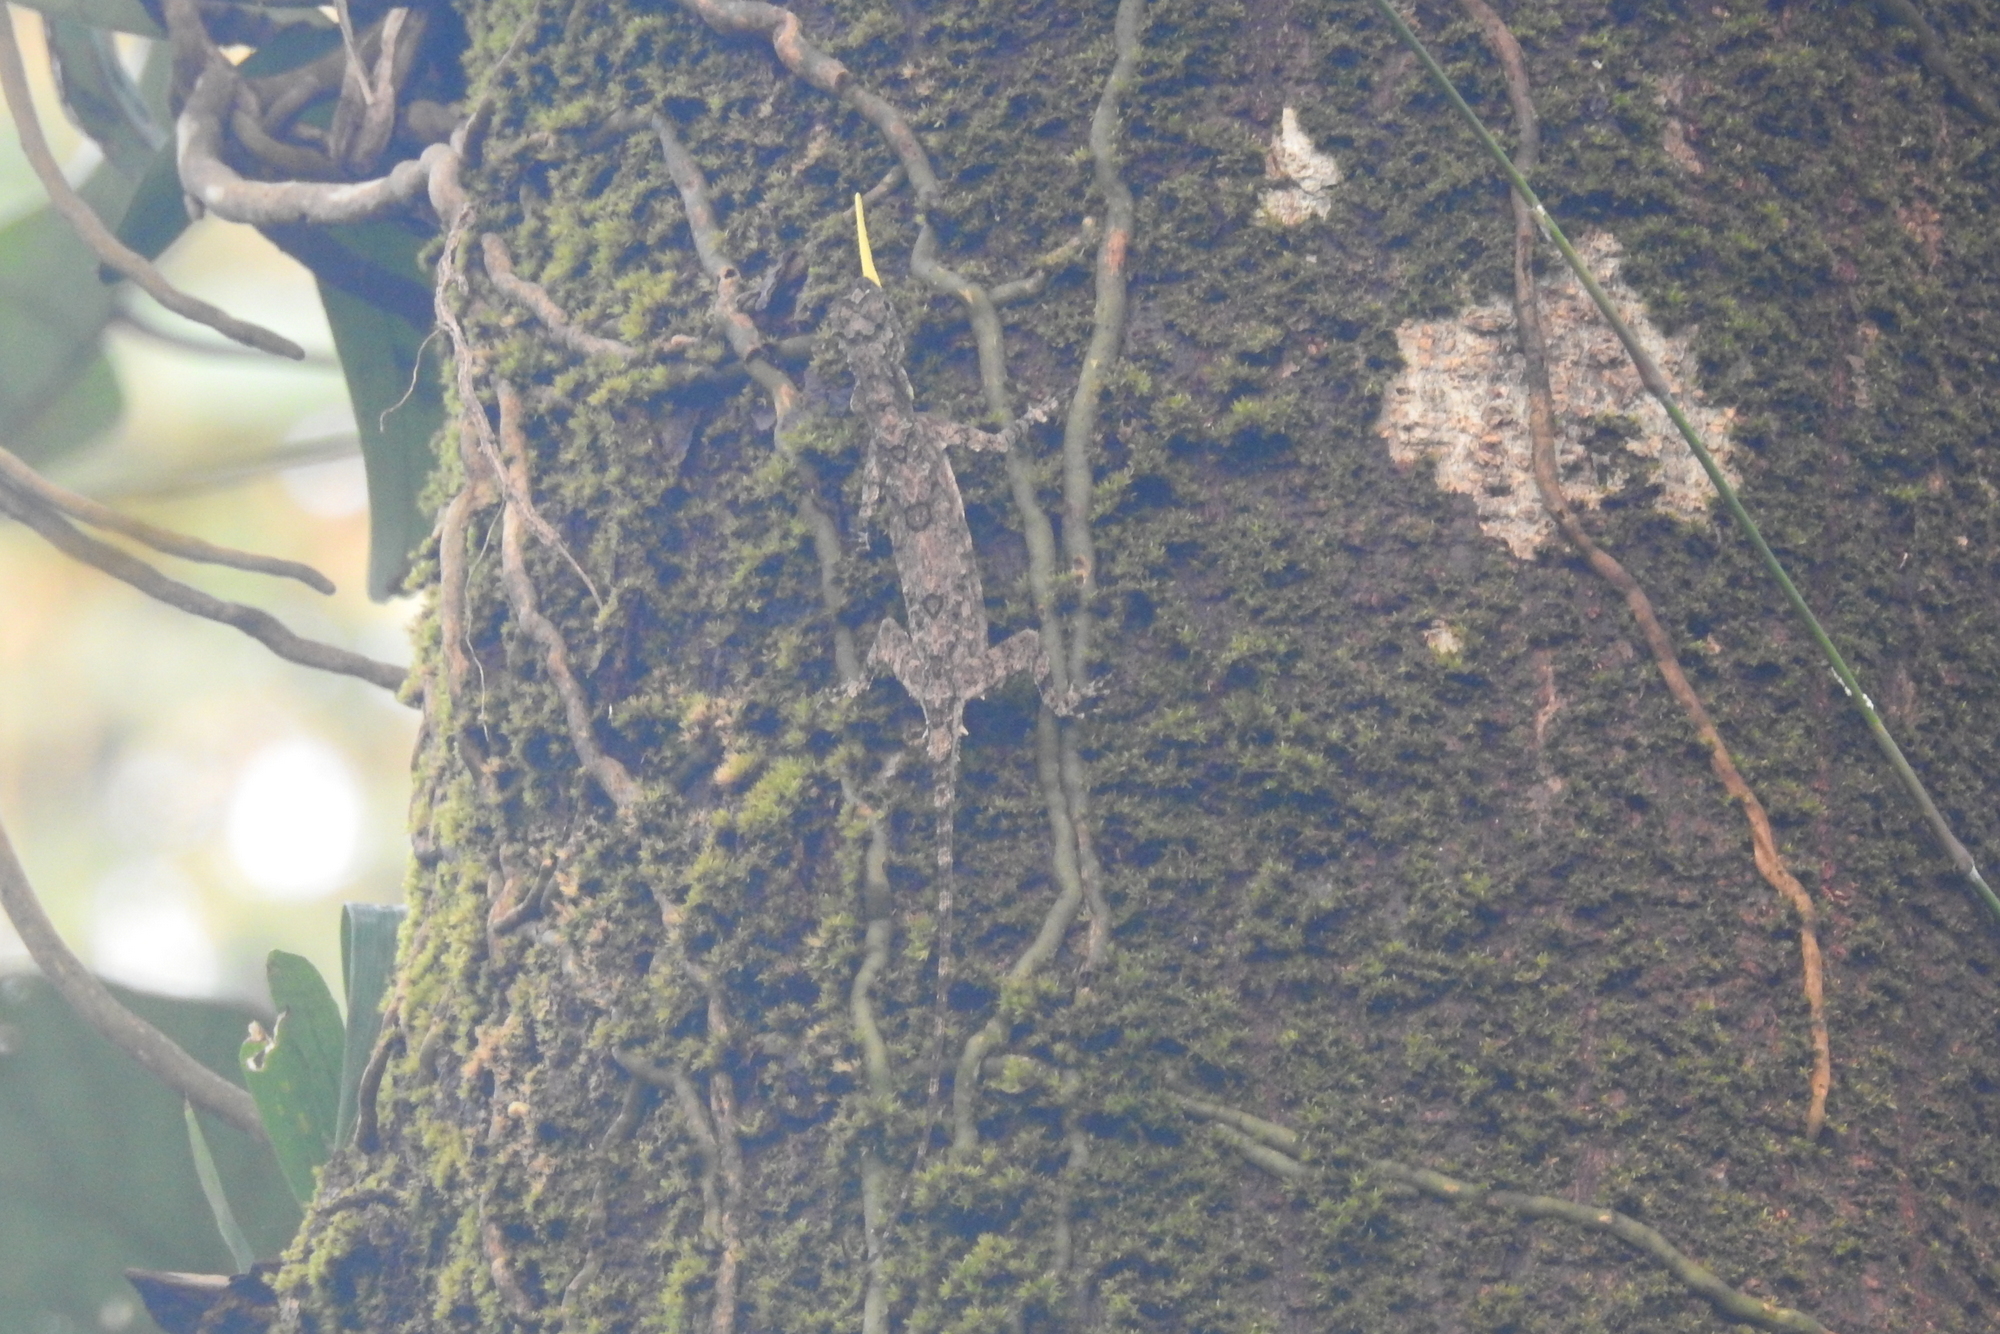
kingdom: Animalia
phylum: Chordata
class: Squamata
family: Agamidae
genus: Draco
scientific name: Draco dussumieri
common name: Southern flying lizard
